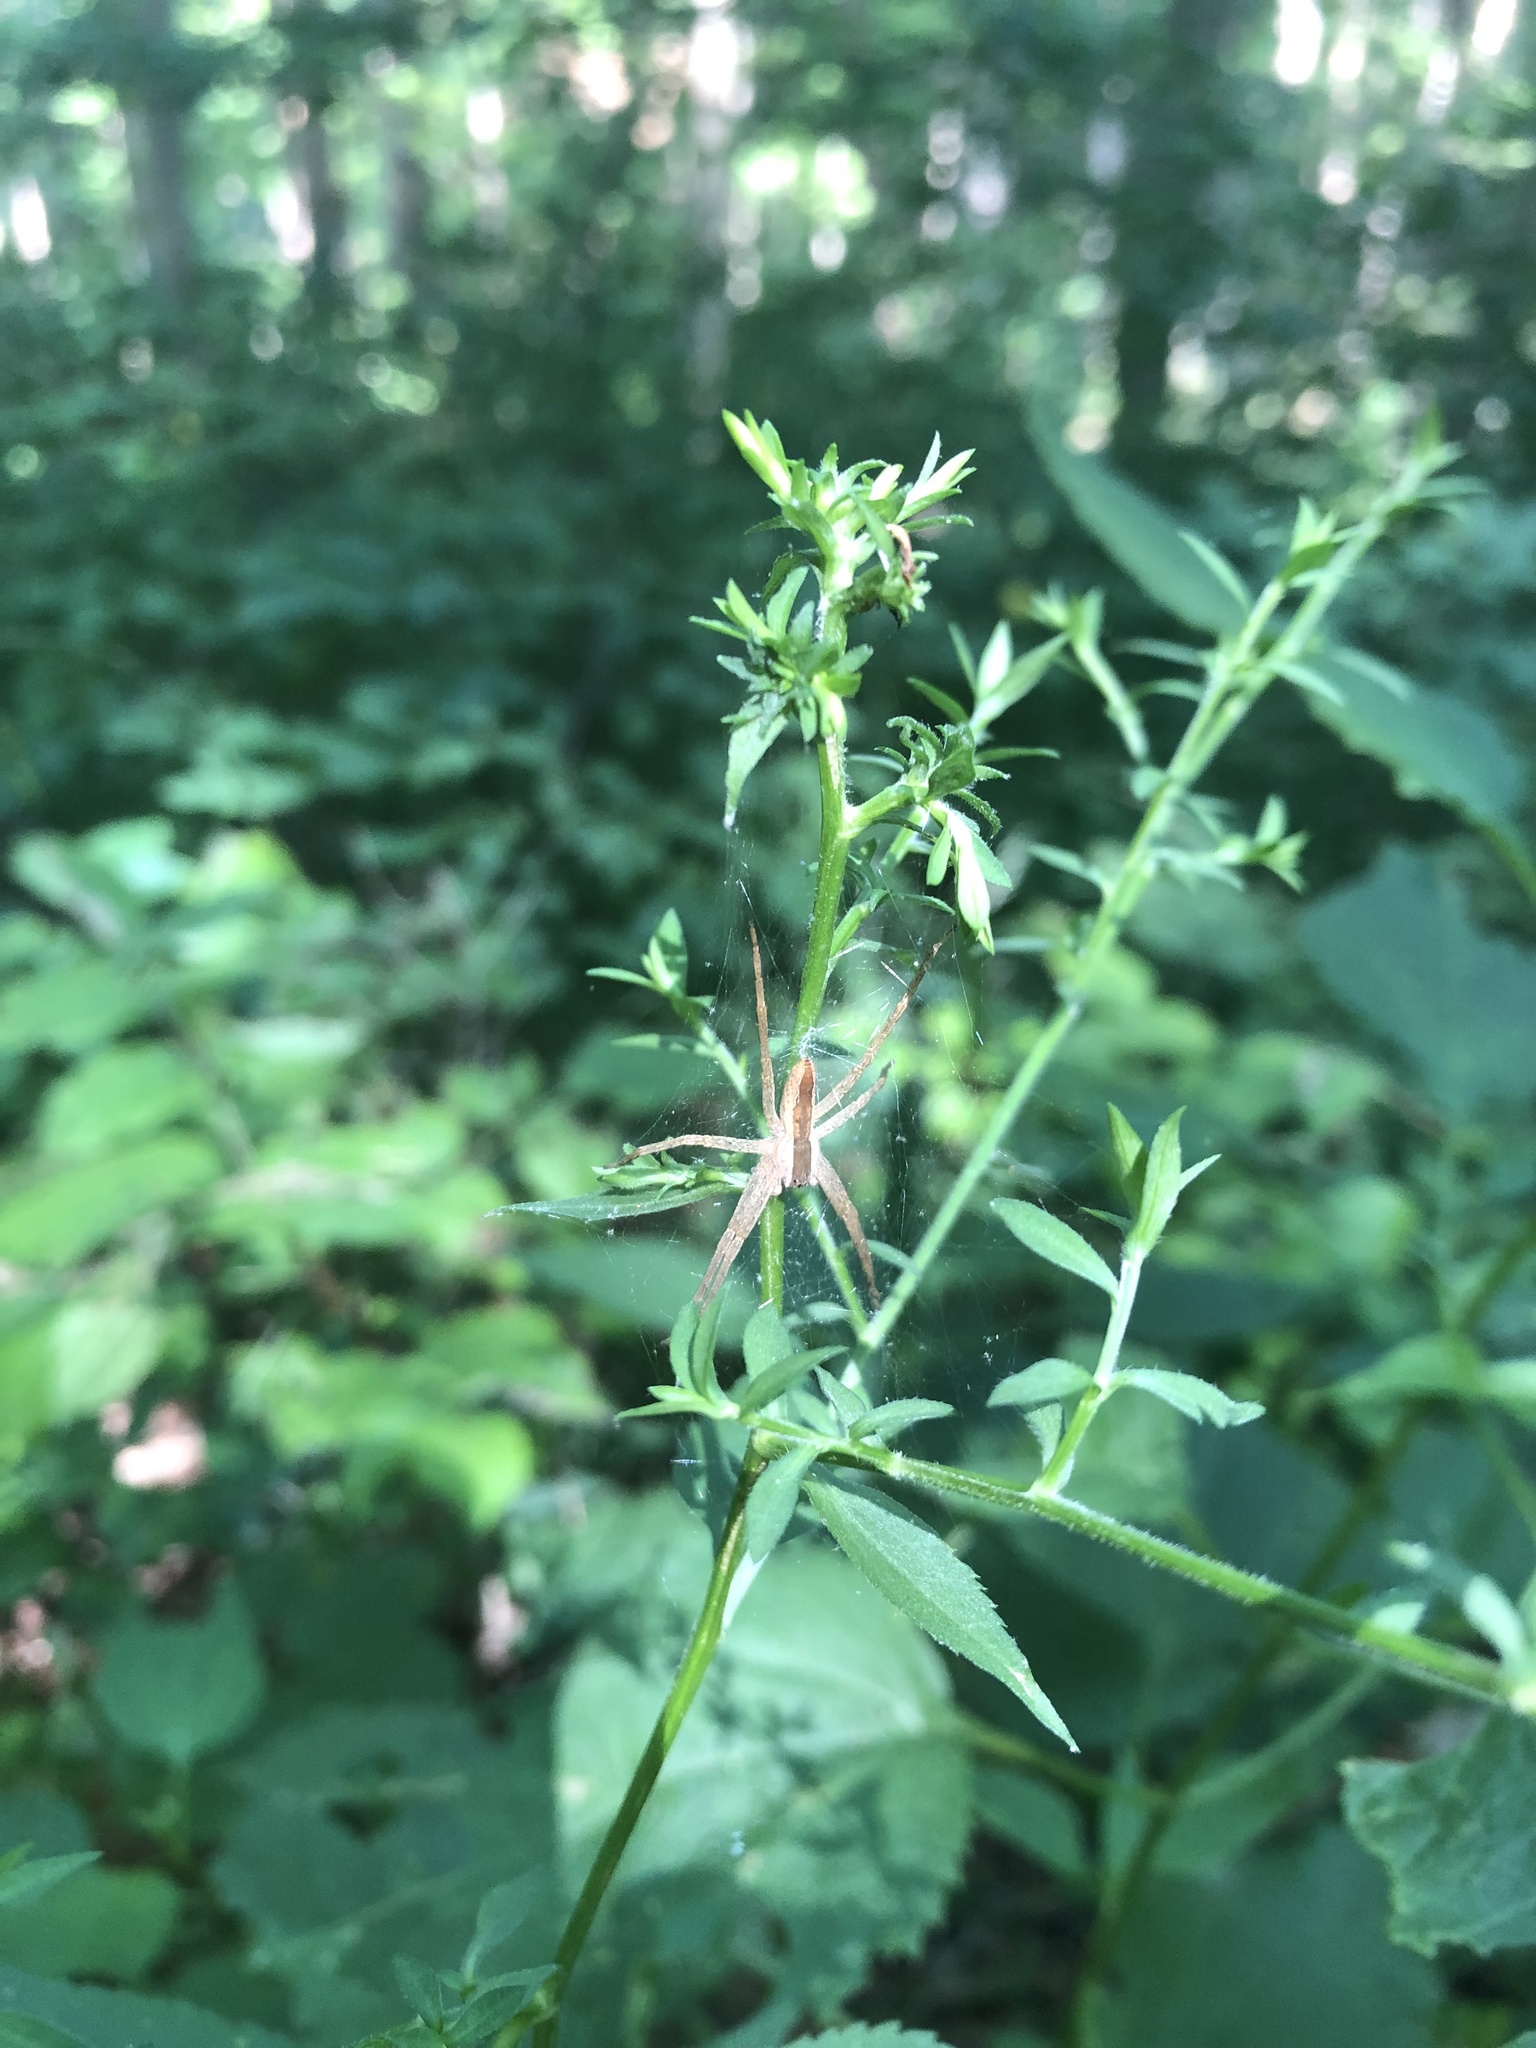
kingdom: Animalia
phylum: Arthropoda
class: Arachnida
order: Araneae
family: Pisauridae
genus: Pisaurina
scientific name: Pisaurina mira
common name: American nursery web spider
